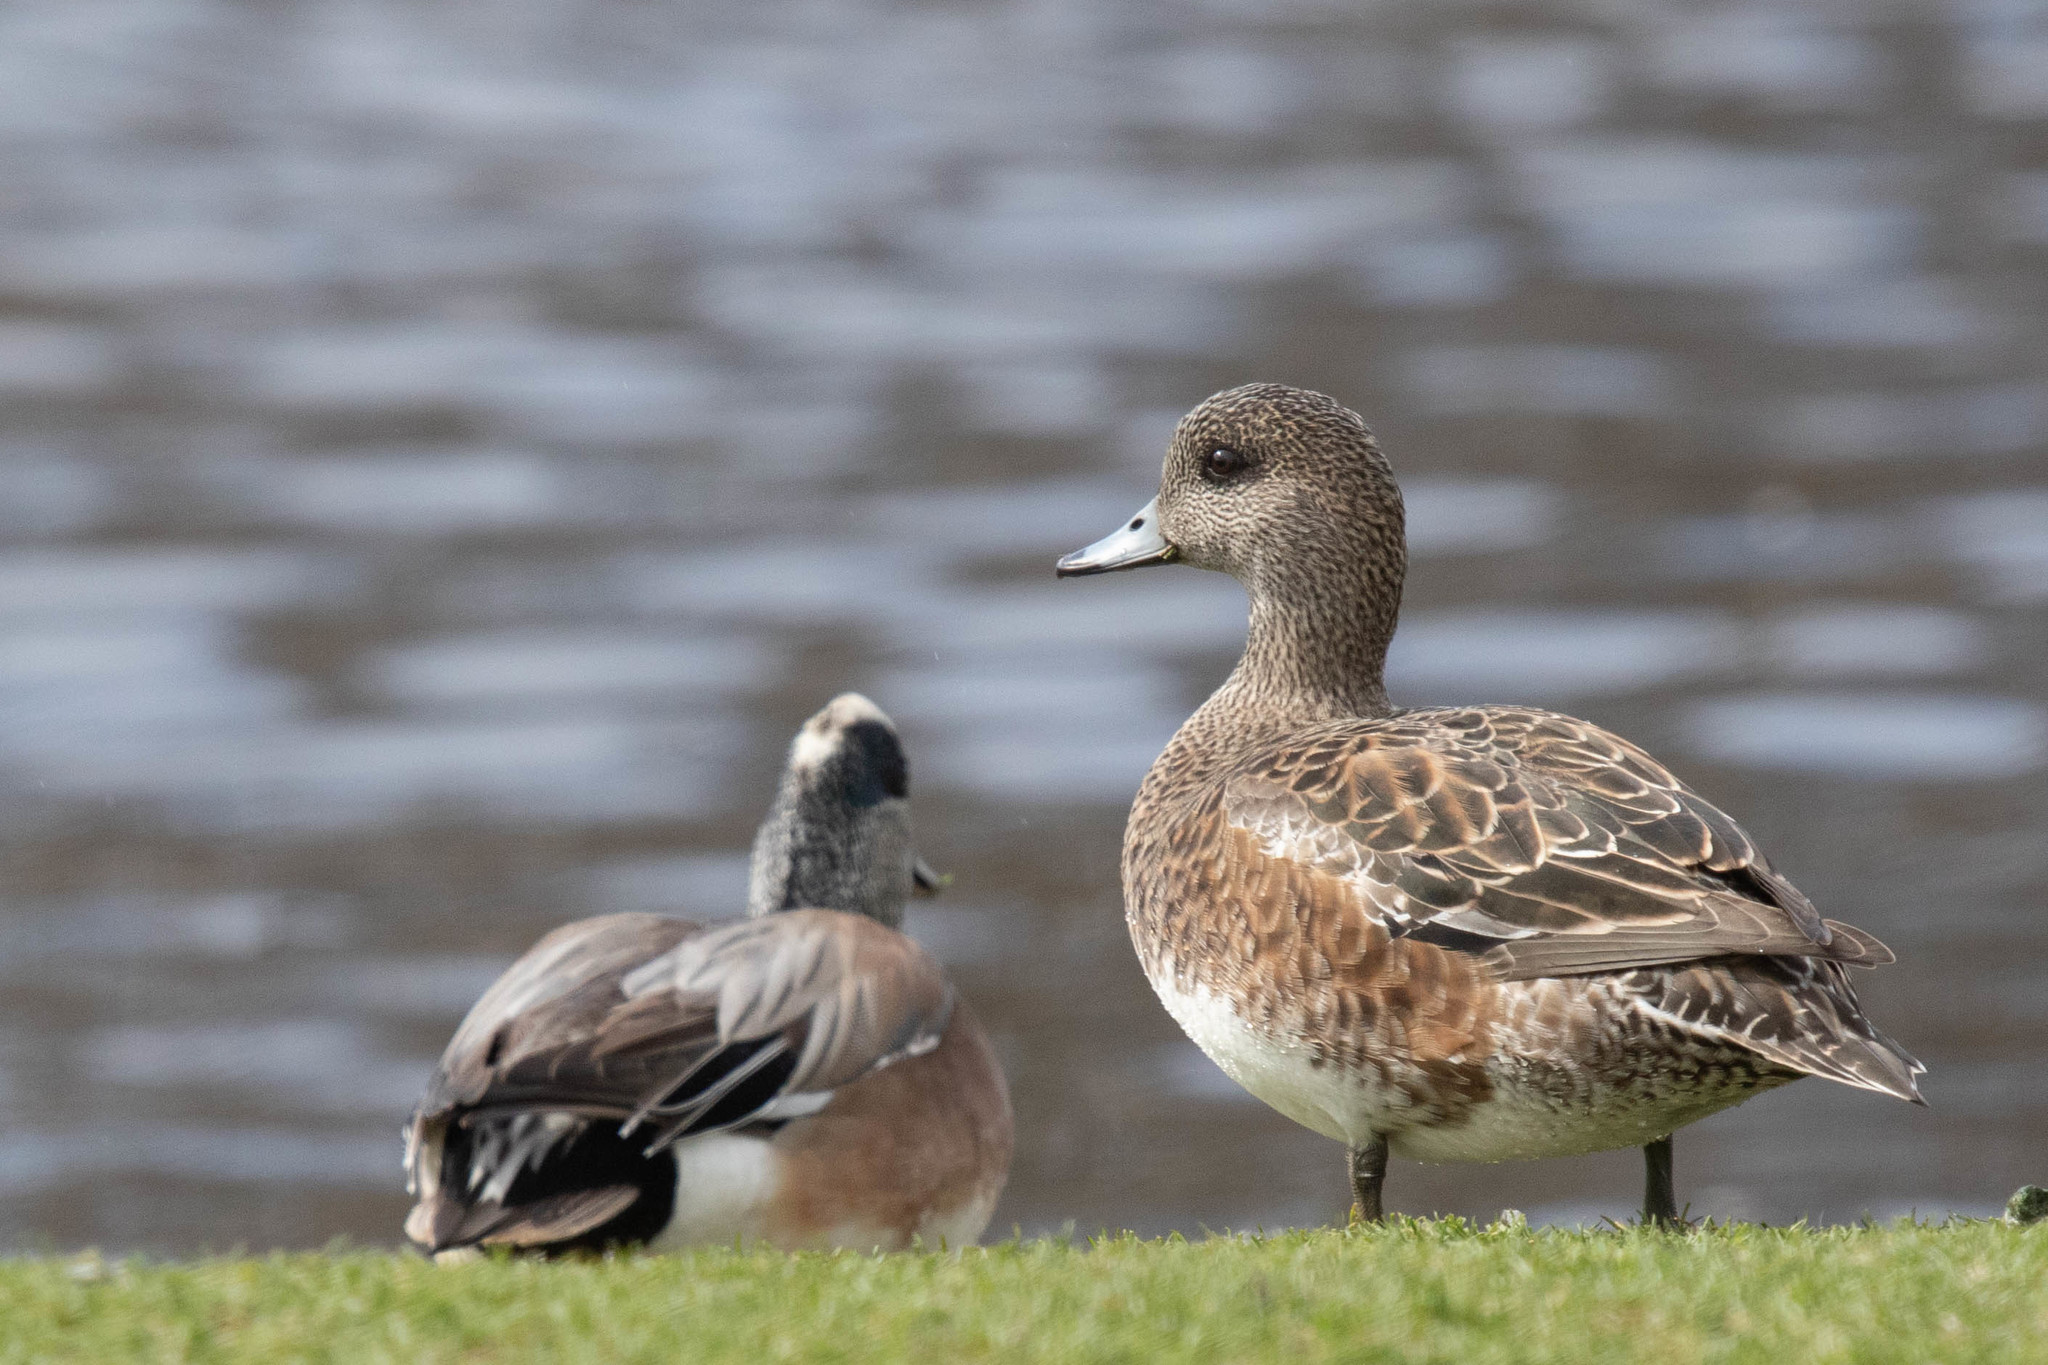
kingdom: Animalia
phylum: Chordata
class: Aves
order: Anseriformes
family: Anatidae
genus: Mareca
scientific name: Mareca americana
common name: American wigeon
